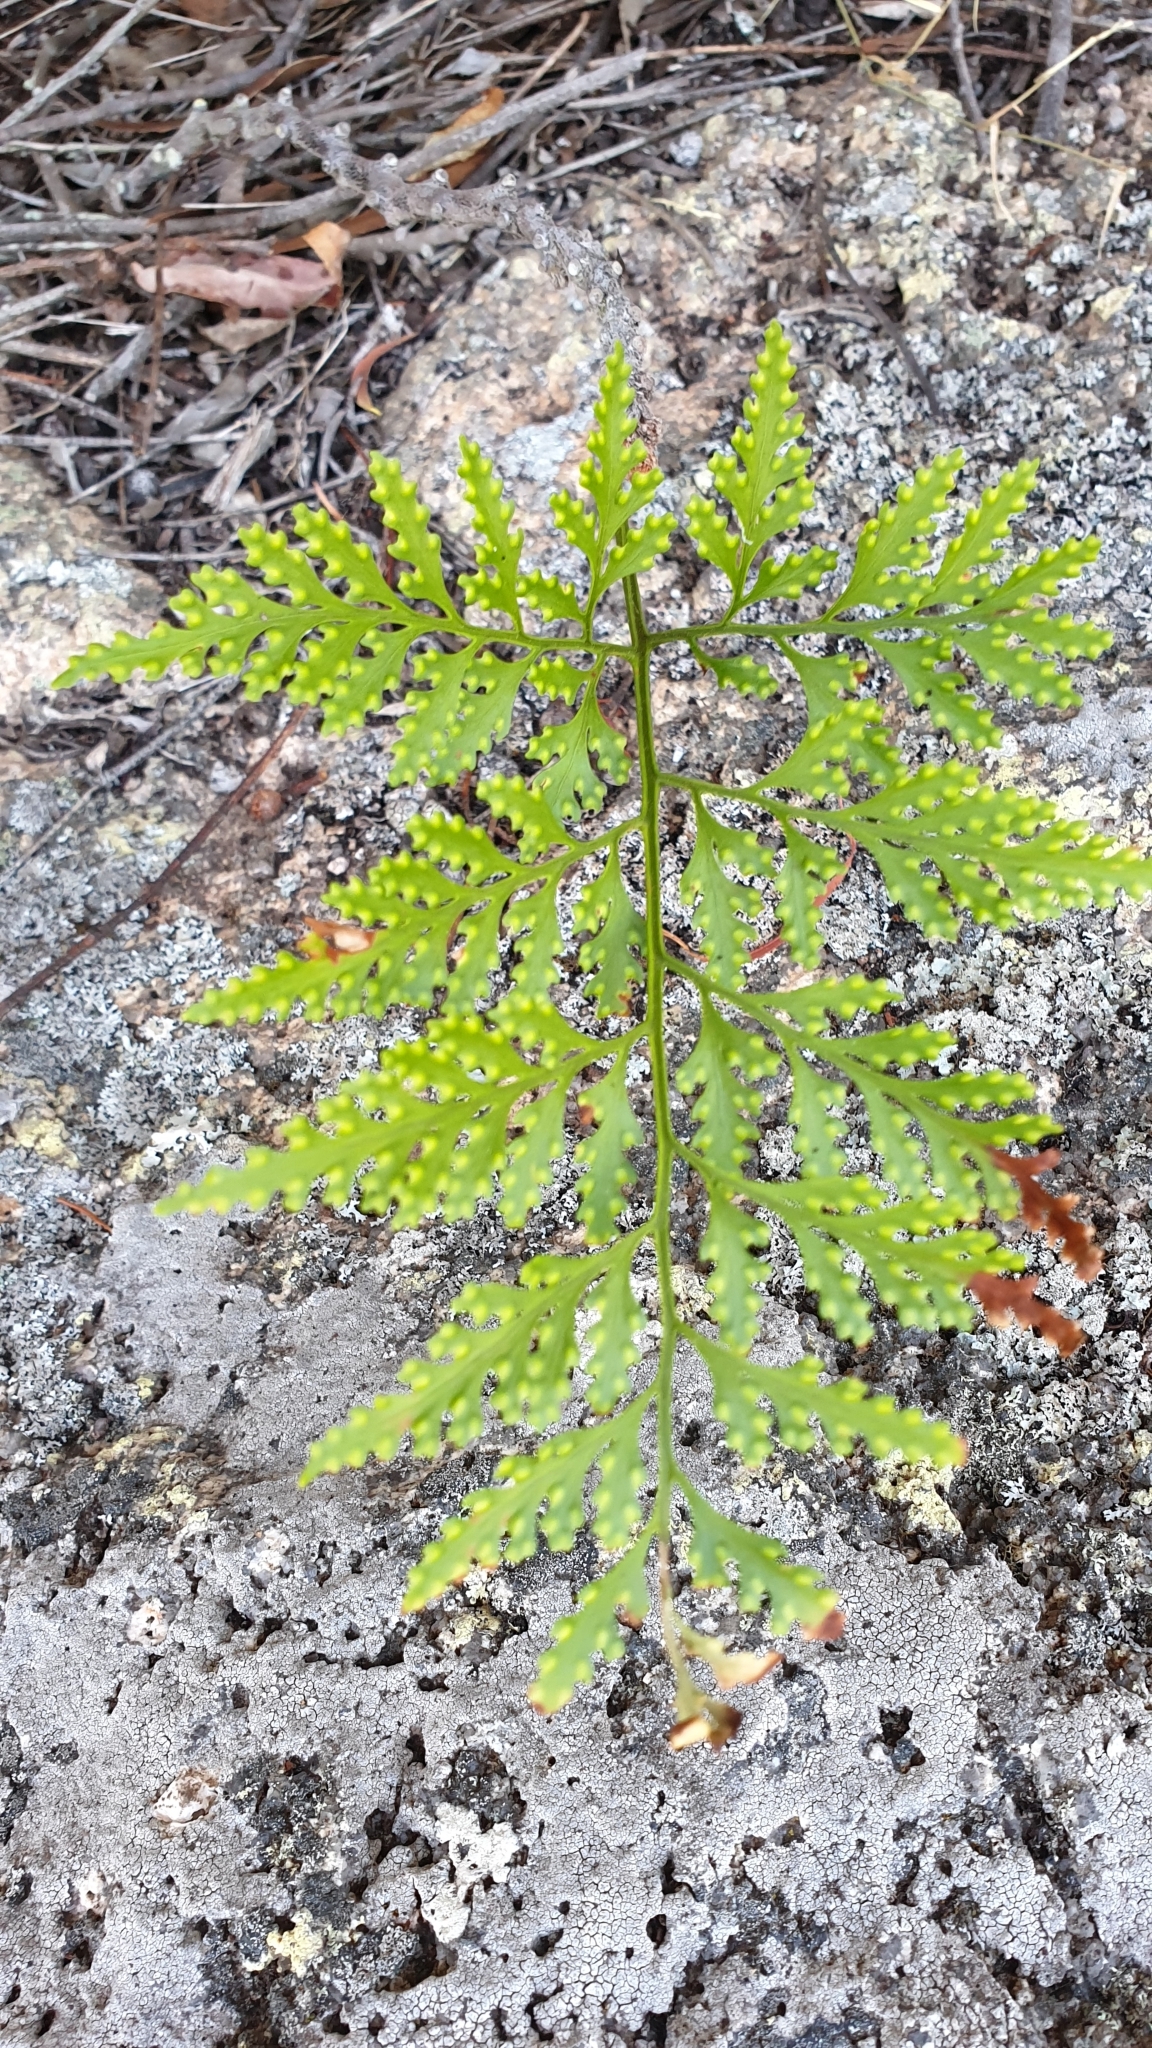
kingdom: Plantae
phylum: Tracheophyta
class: Polypodiopsida
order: Polypodiales
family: Davalliaceae
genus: Davallia
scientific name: Davallia solida
